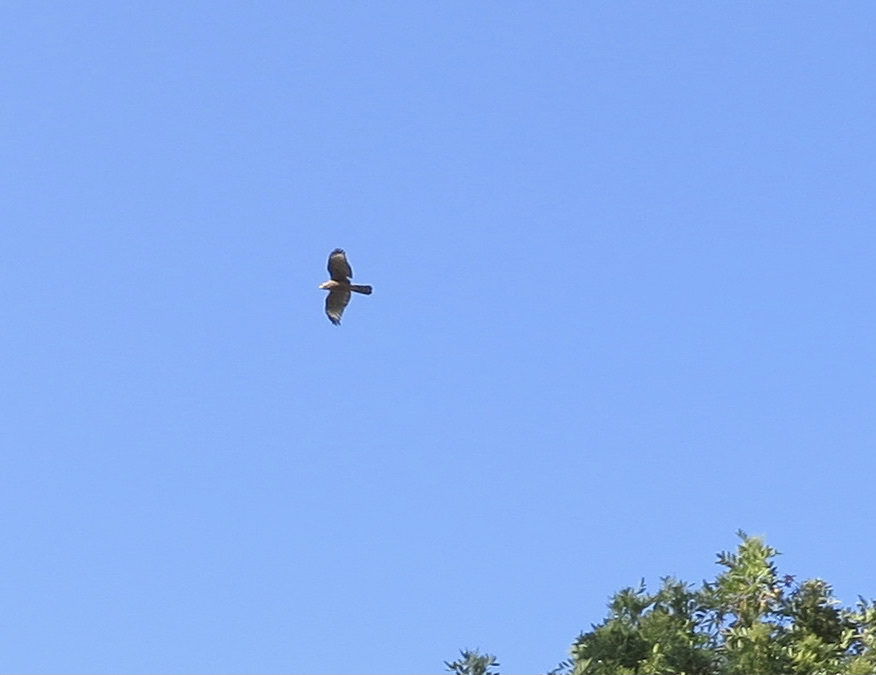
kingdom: Animalia
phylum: Chordata
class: Aves
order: Accipitriformes
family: Accipitridae
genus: Accipiter
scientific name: Accipiter cooperii
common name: Cooper's hawk
